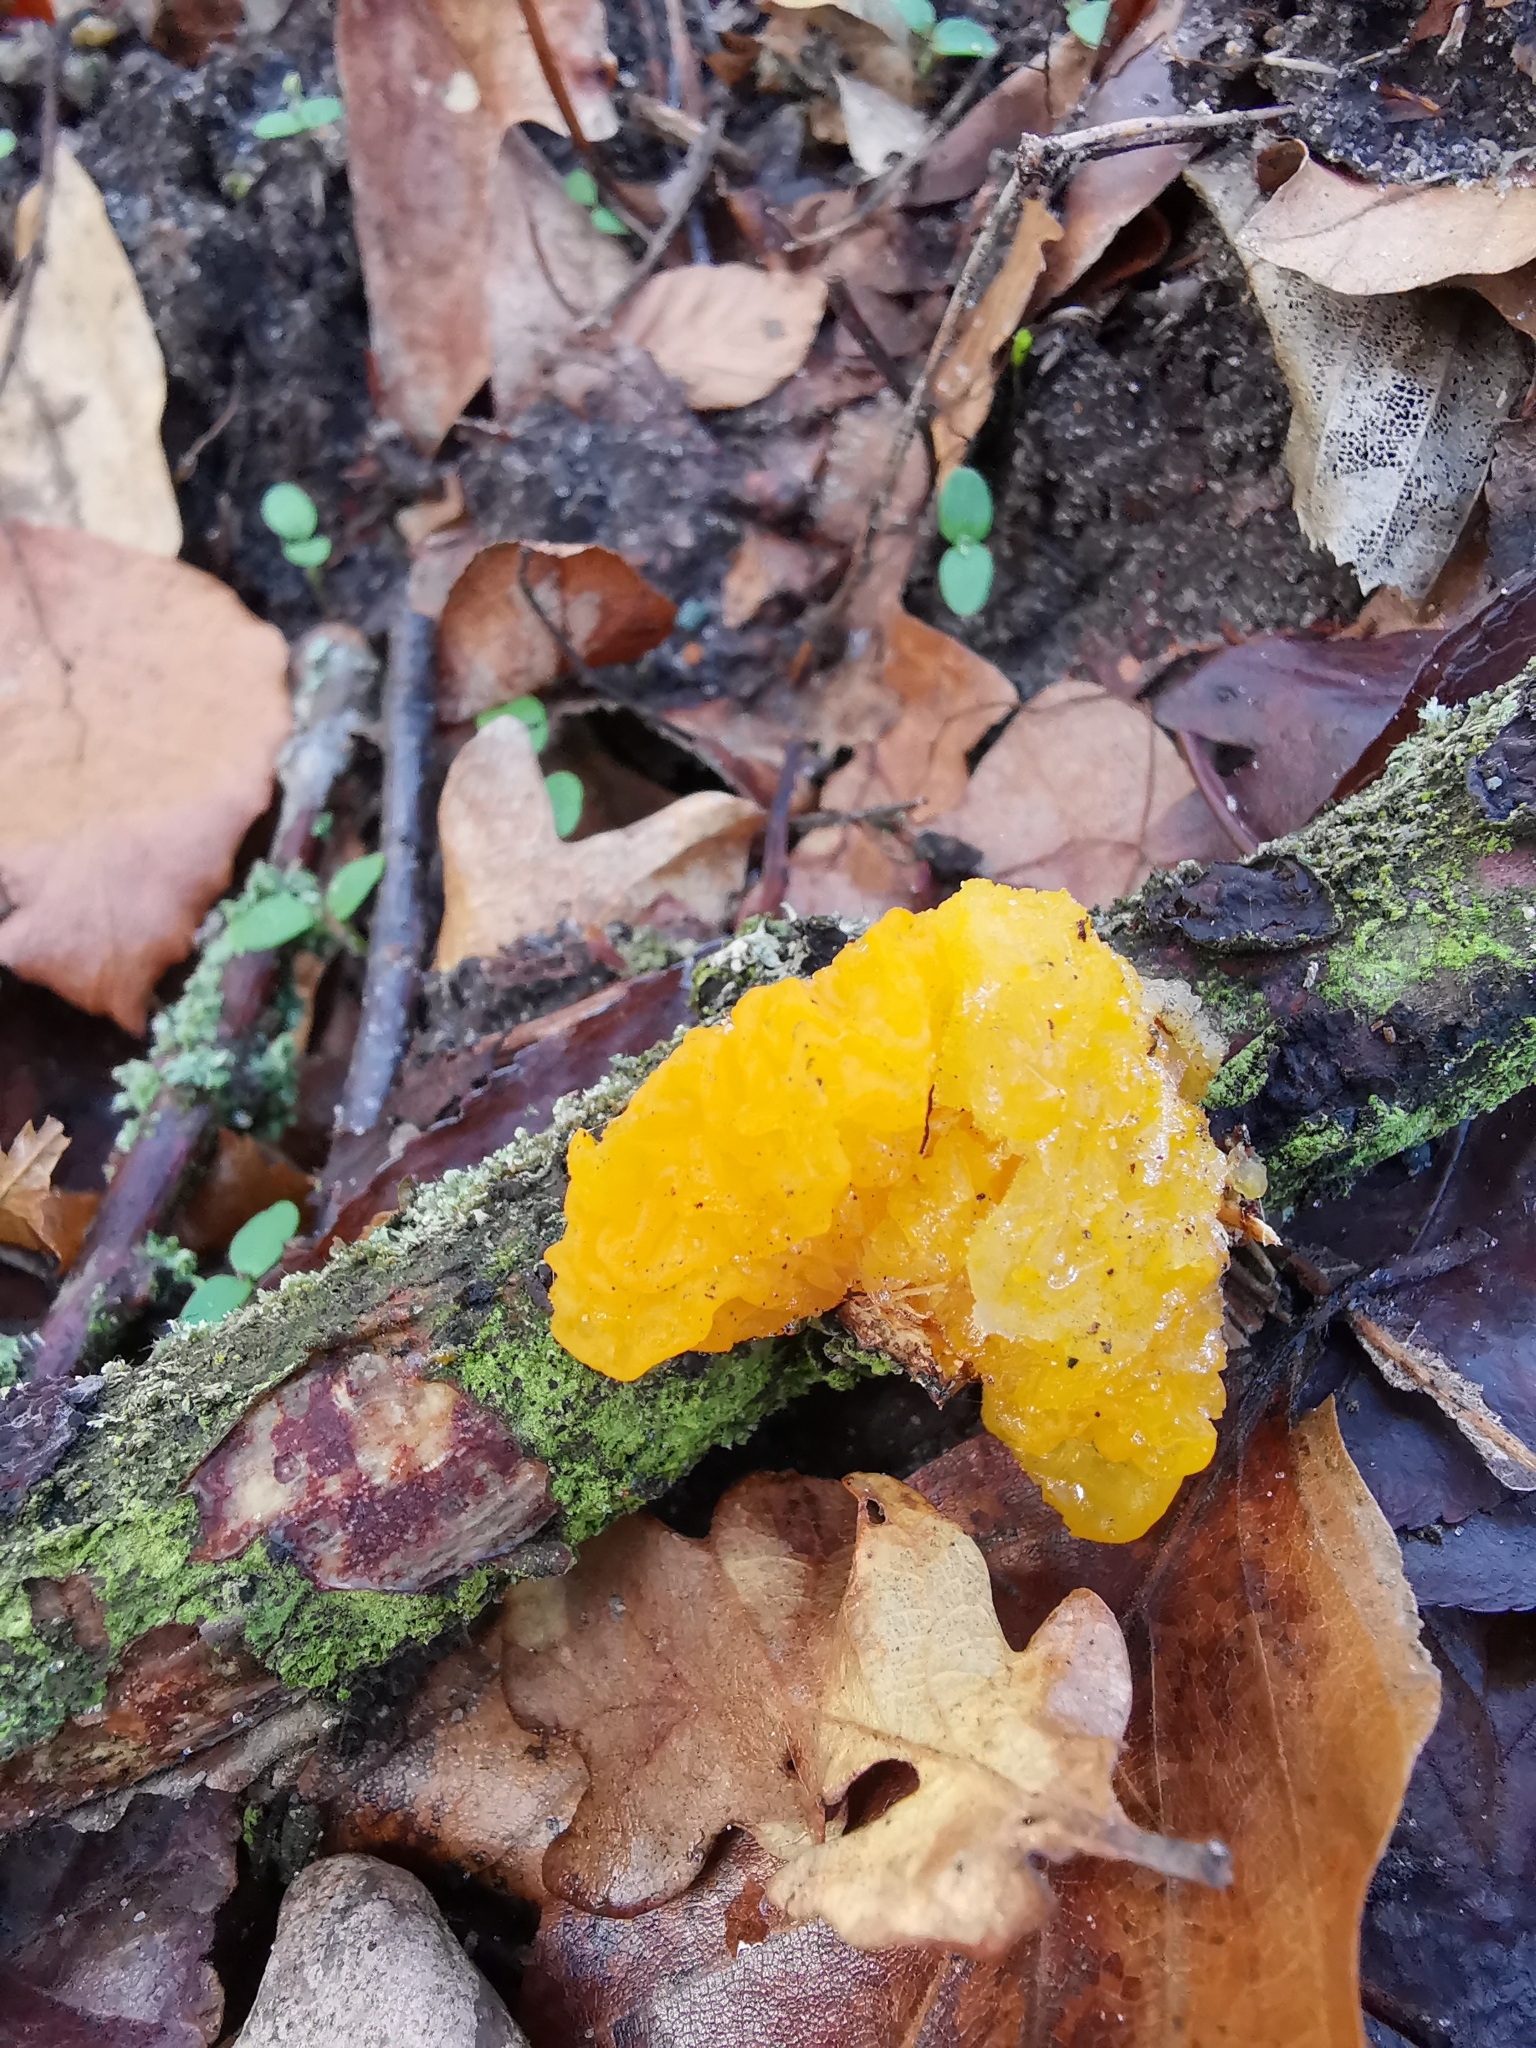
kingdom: Fungi
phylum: Basidiomycota
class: Tremellomycetes
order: Tremellales
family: Tremellaceae
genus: Tremella
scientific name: Tremella mesenterica
